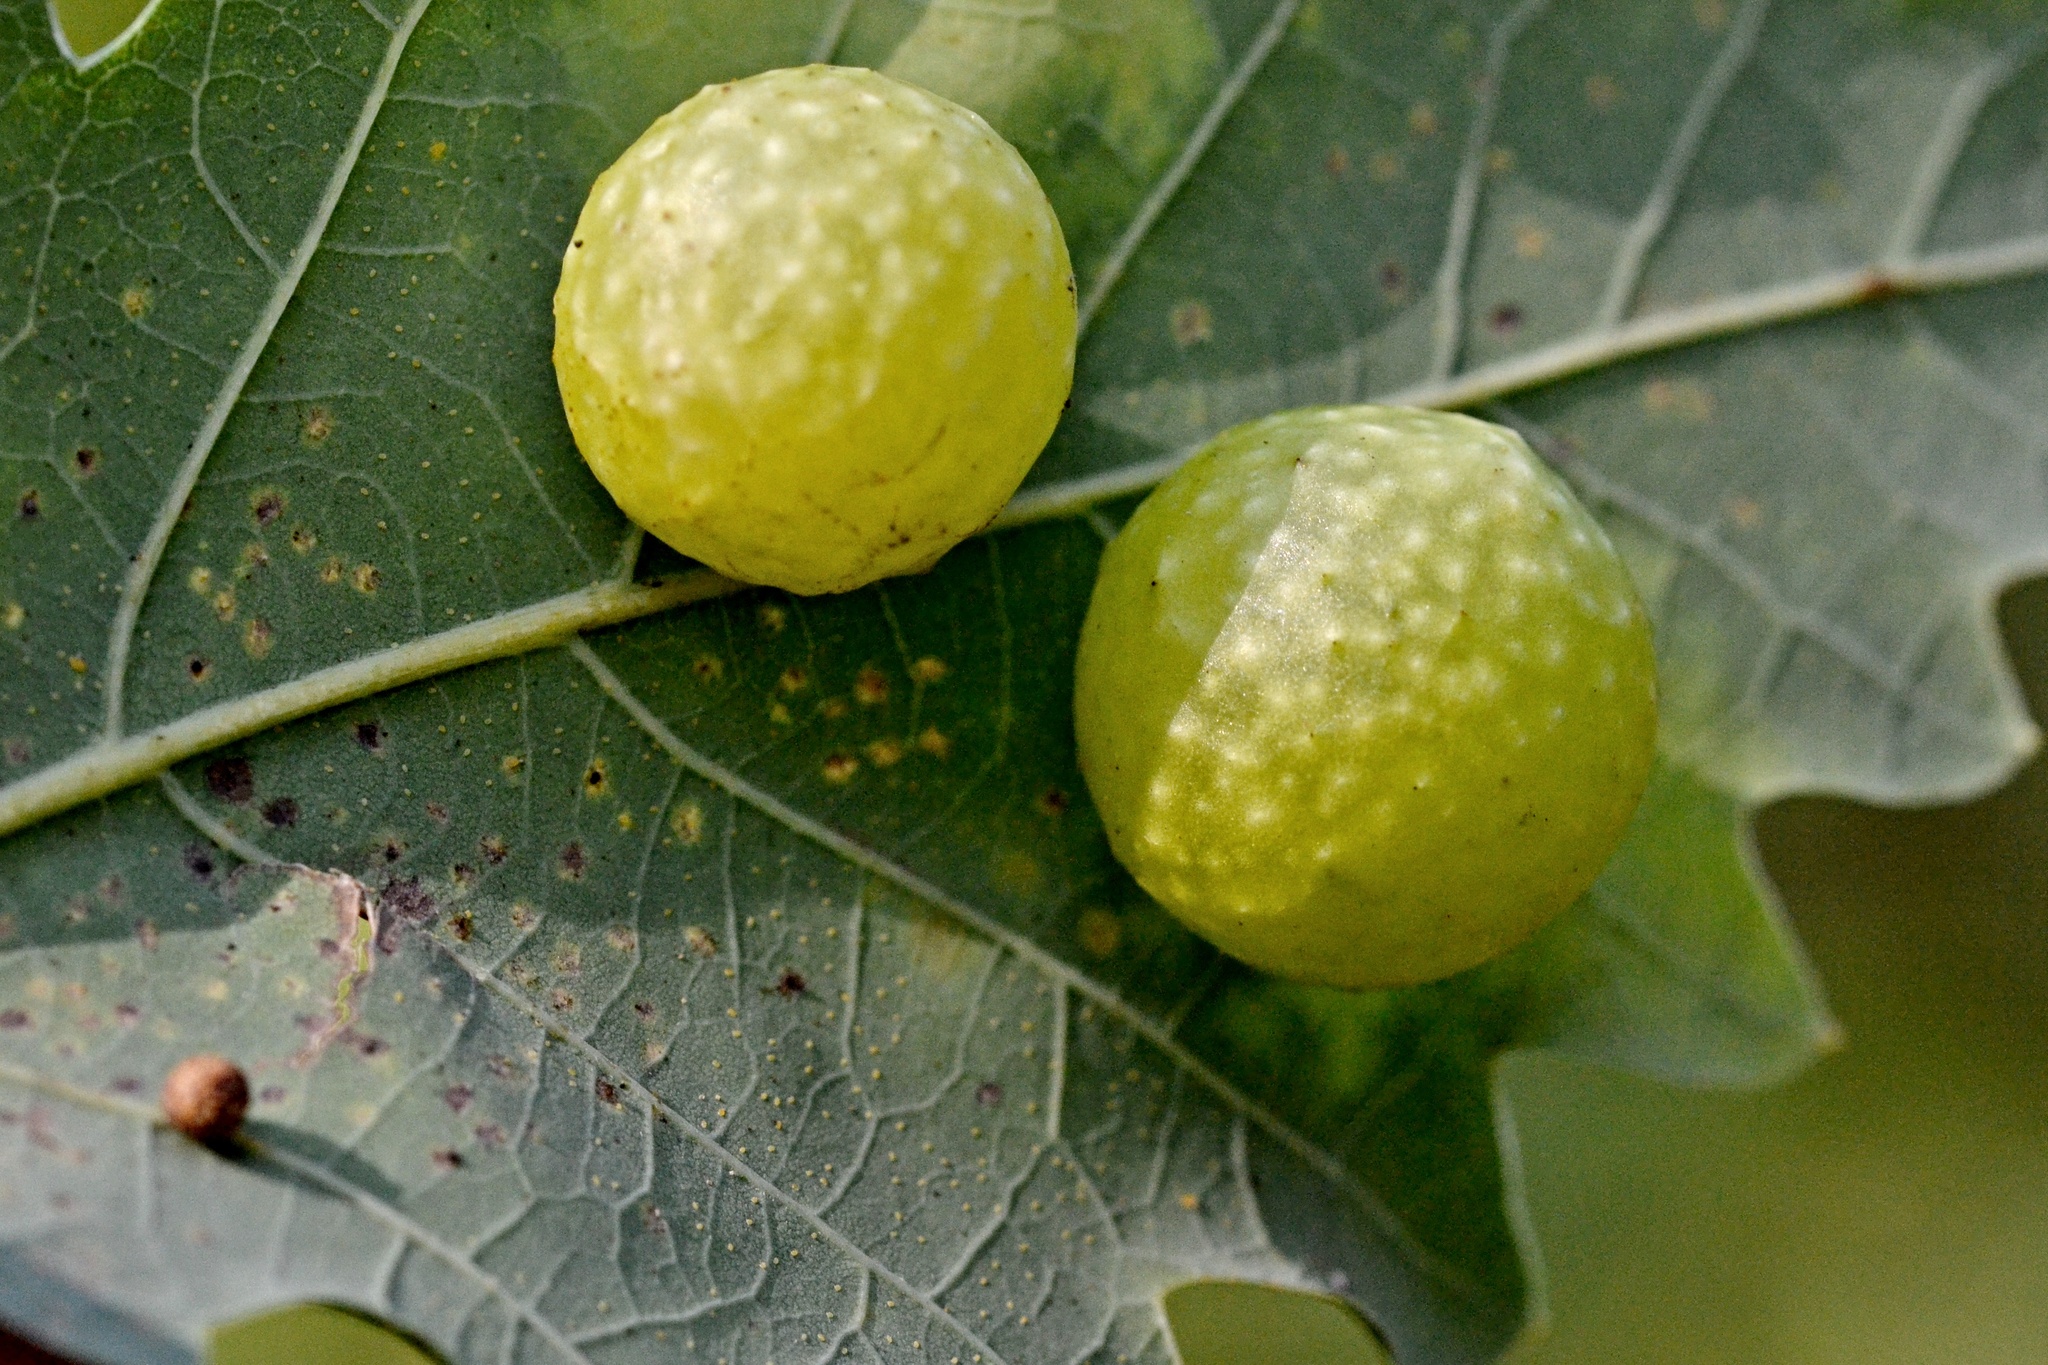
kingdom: Animalia
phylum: Arthropoda
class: Insecta
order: Hymenoptera
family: Cynipidae
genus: Cynips
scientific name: Cynips quercusfolii
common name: Cherry gall
